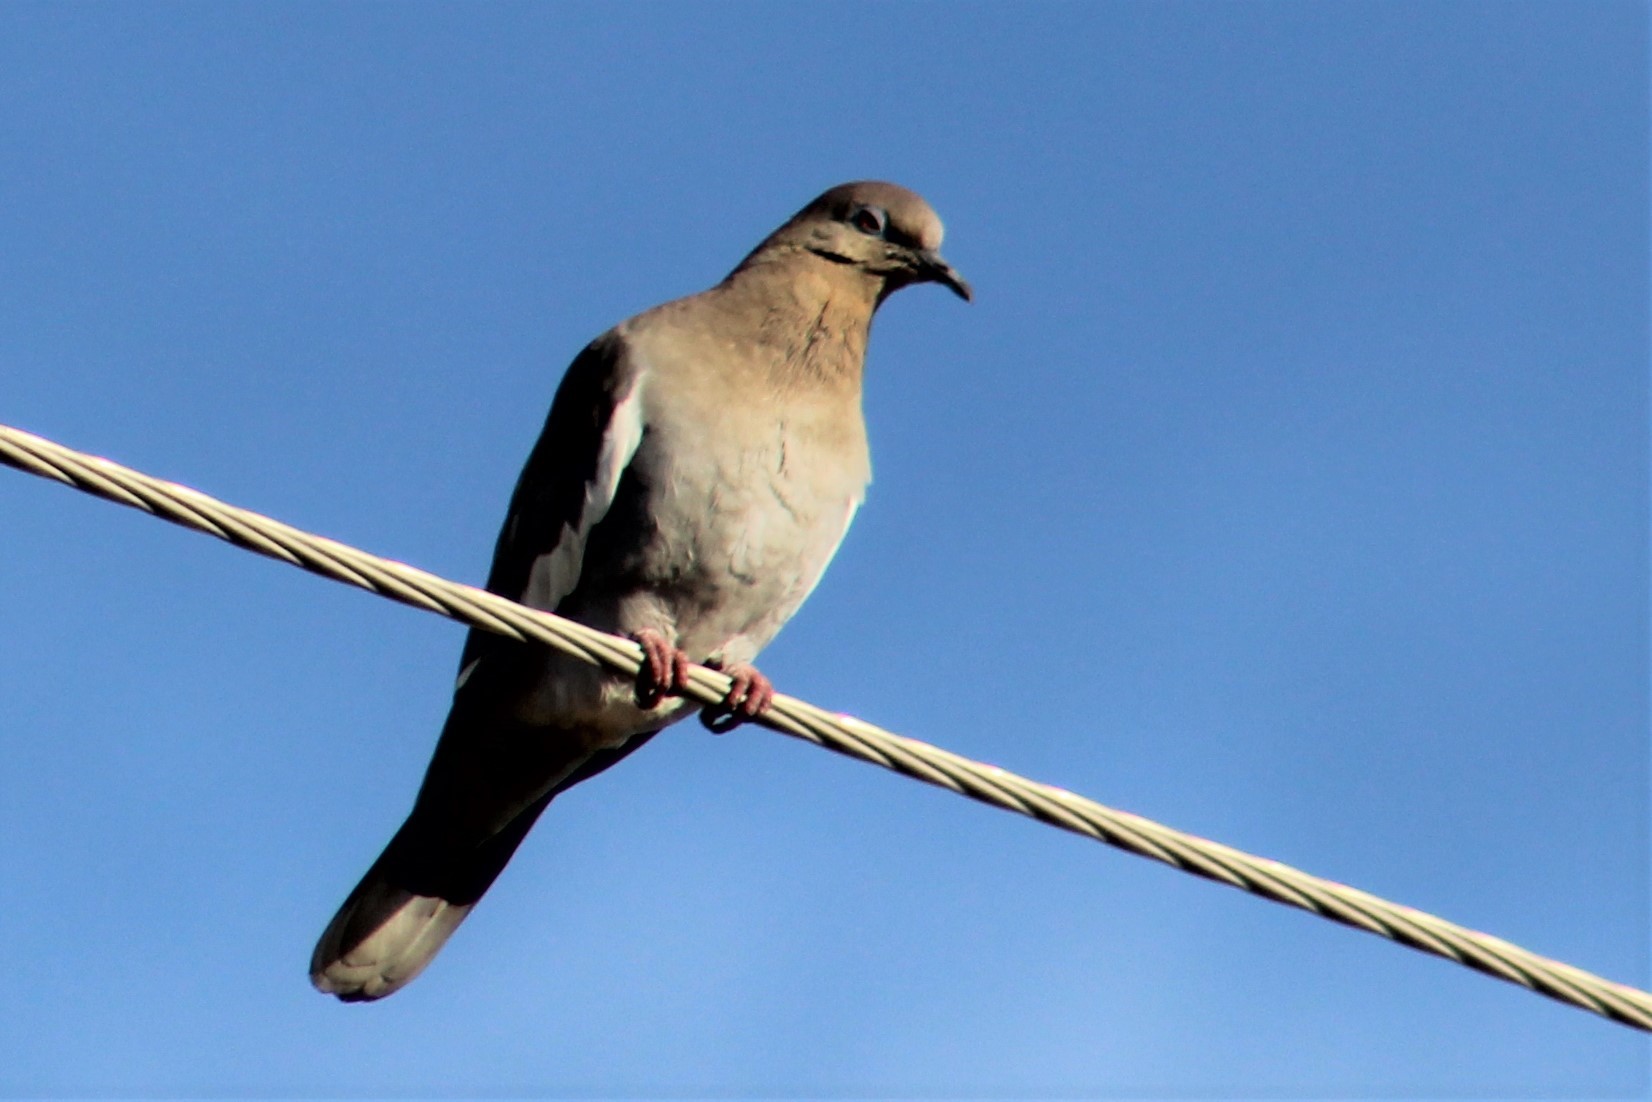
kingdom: Animalia
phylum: Chordata
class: Aves
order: Columbiformes
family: Columbidae
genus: Zenaida
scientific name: Zenaida asiatica
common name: White-winged dove
